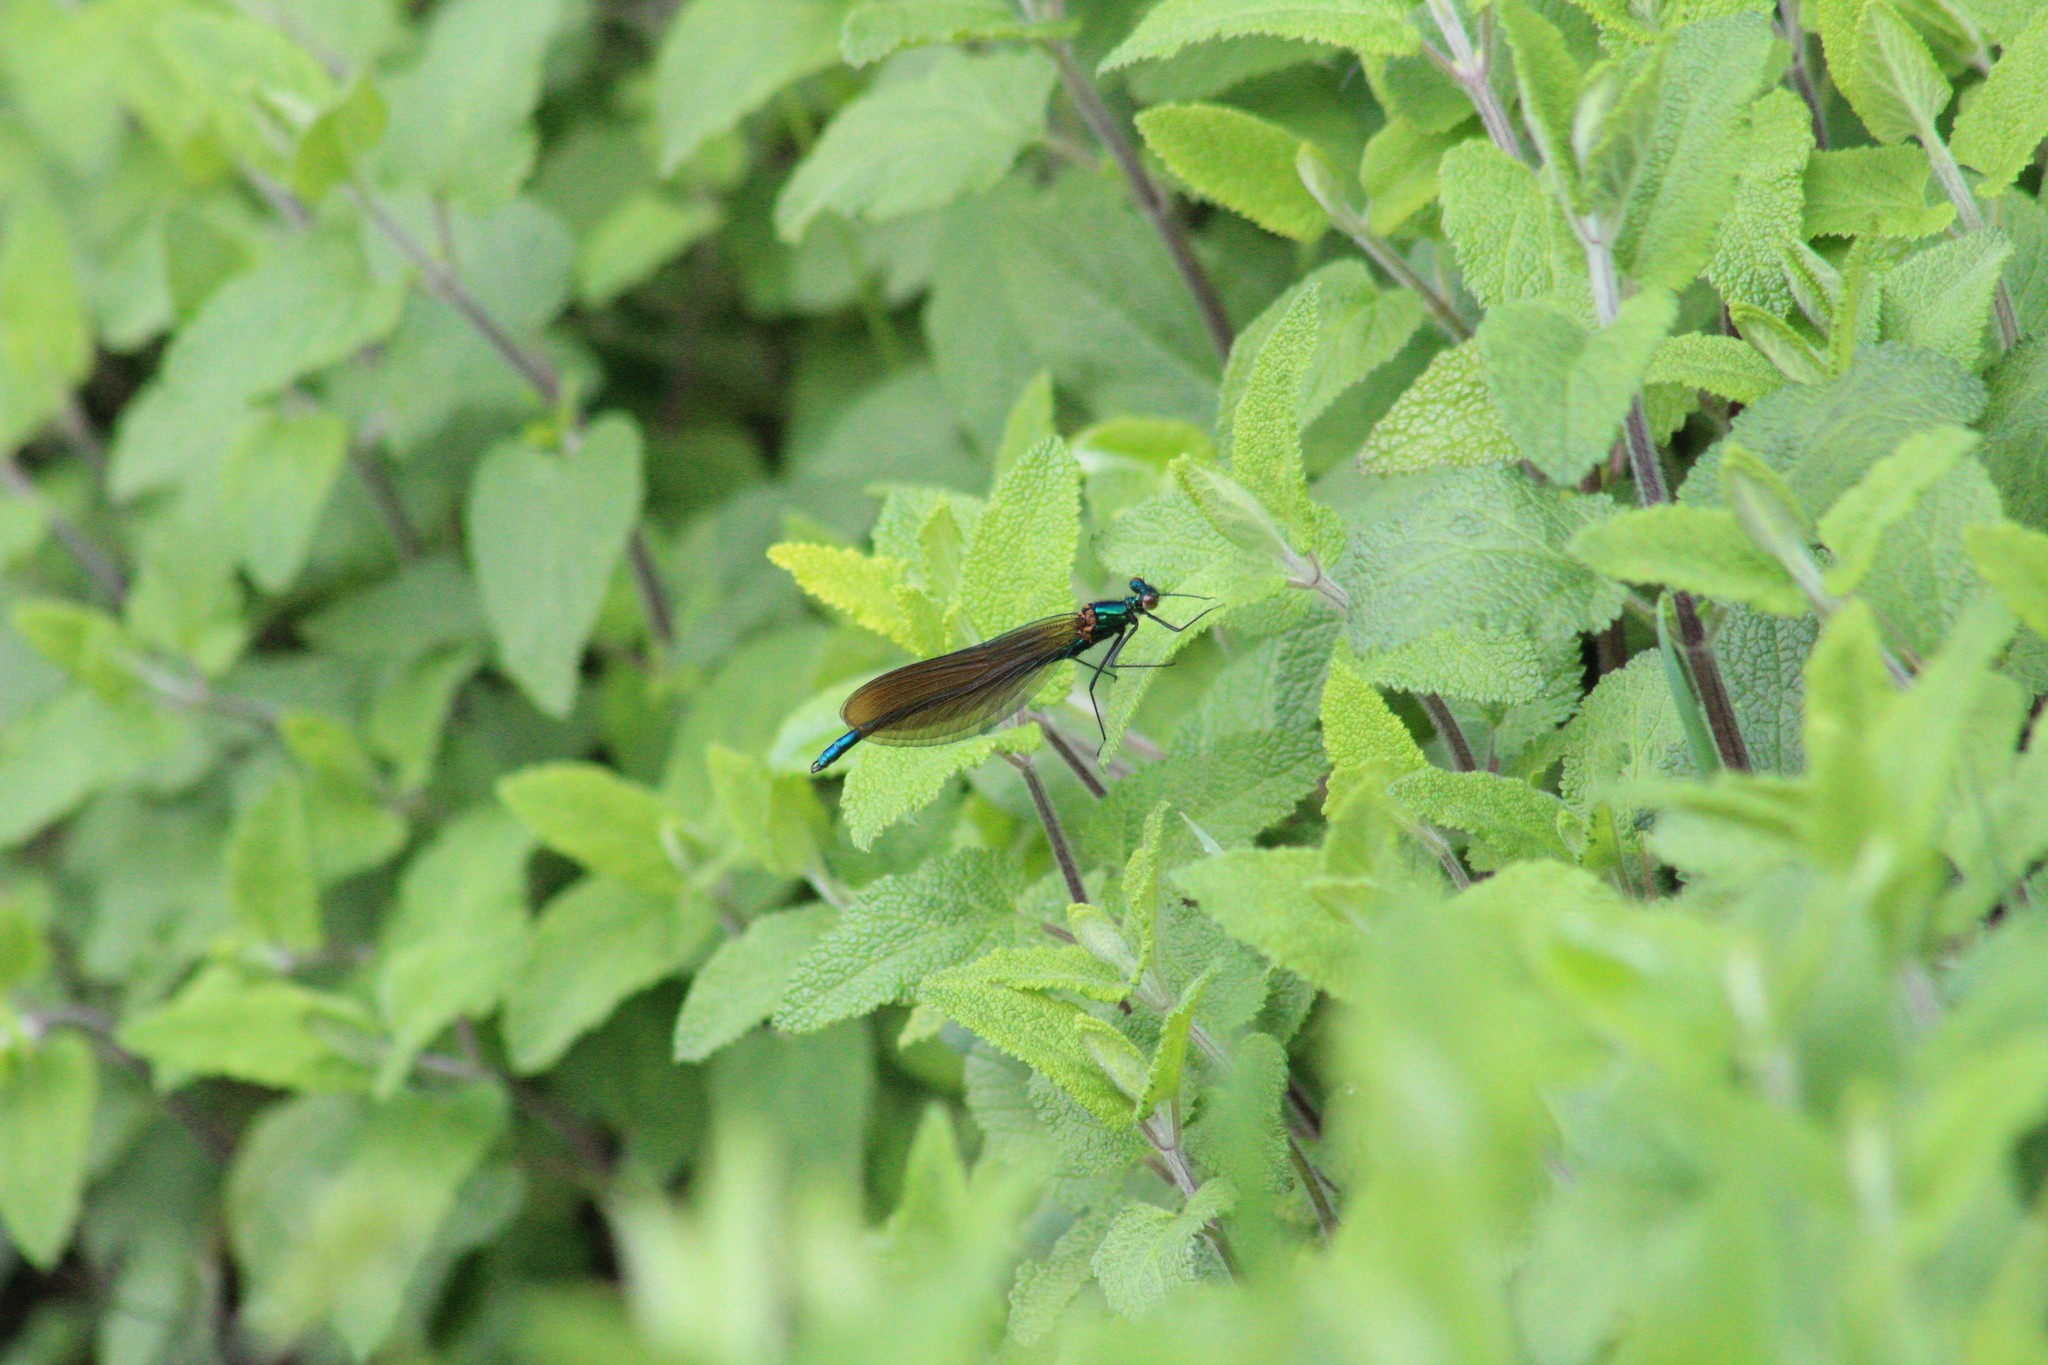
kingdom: Animalia
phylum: Arthropoda
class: Insecta
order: Odonata
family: Calopterygidae
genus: Calopteryx
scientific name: Calopteryx virgo
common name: Beautiful demoiselle
